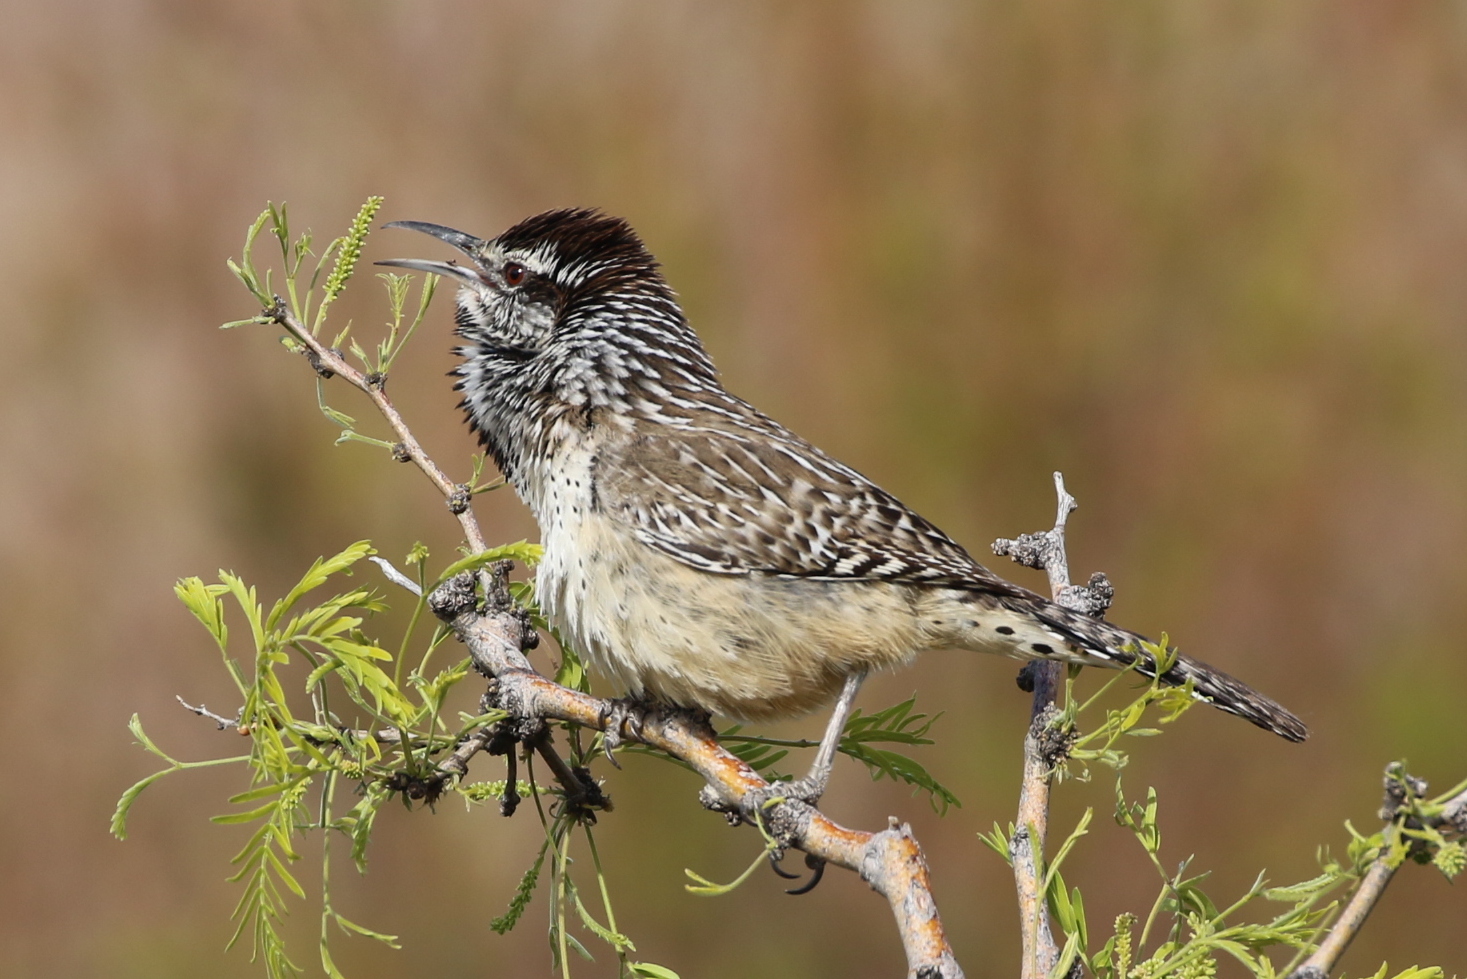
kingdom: Animalia
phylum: Chordata
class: Aves
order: Passeriformes
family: Troglodytidae
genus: Campylorhynchus
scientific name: Campylorhynchus brunneicapillus
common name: Cactus wren
